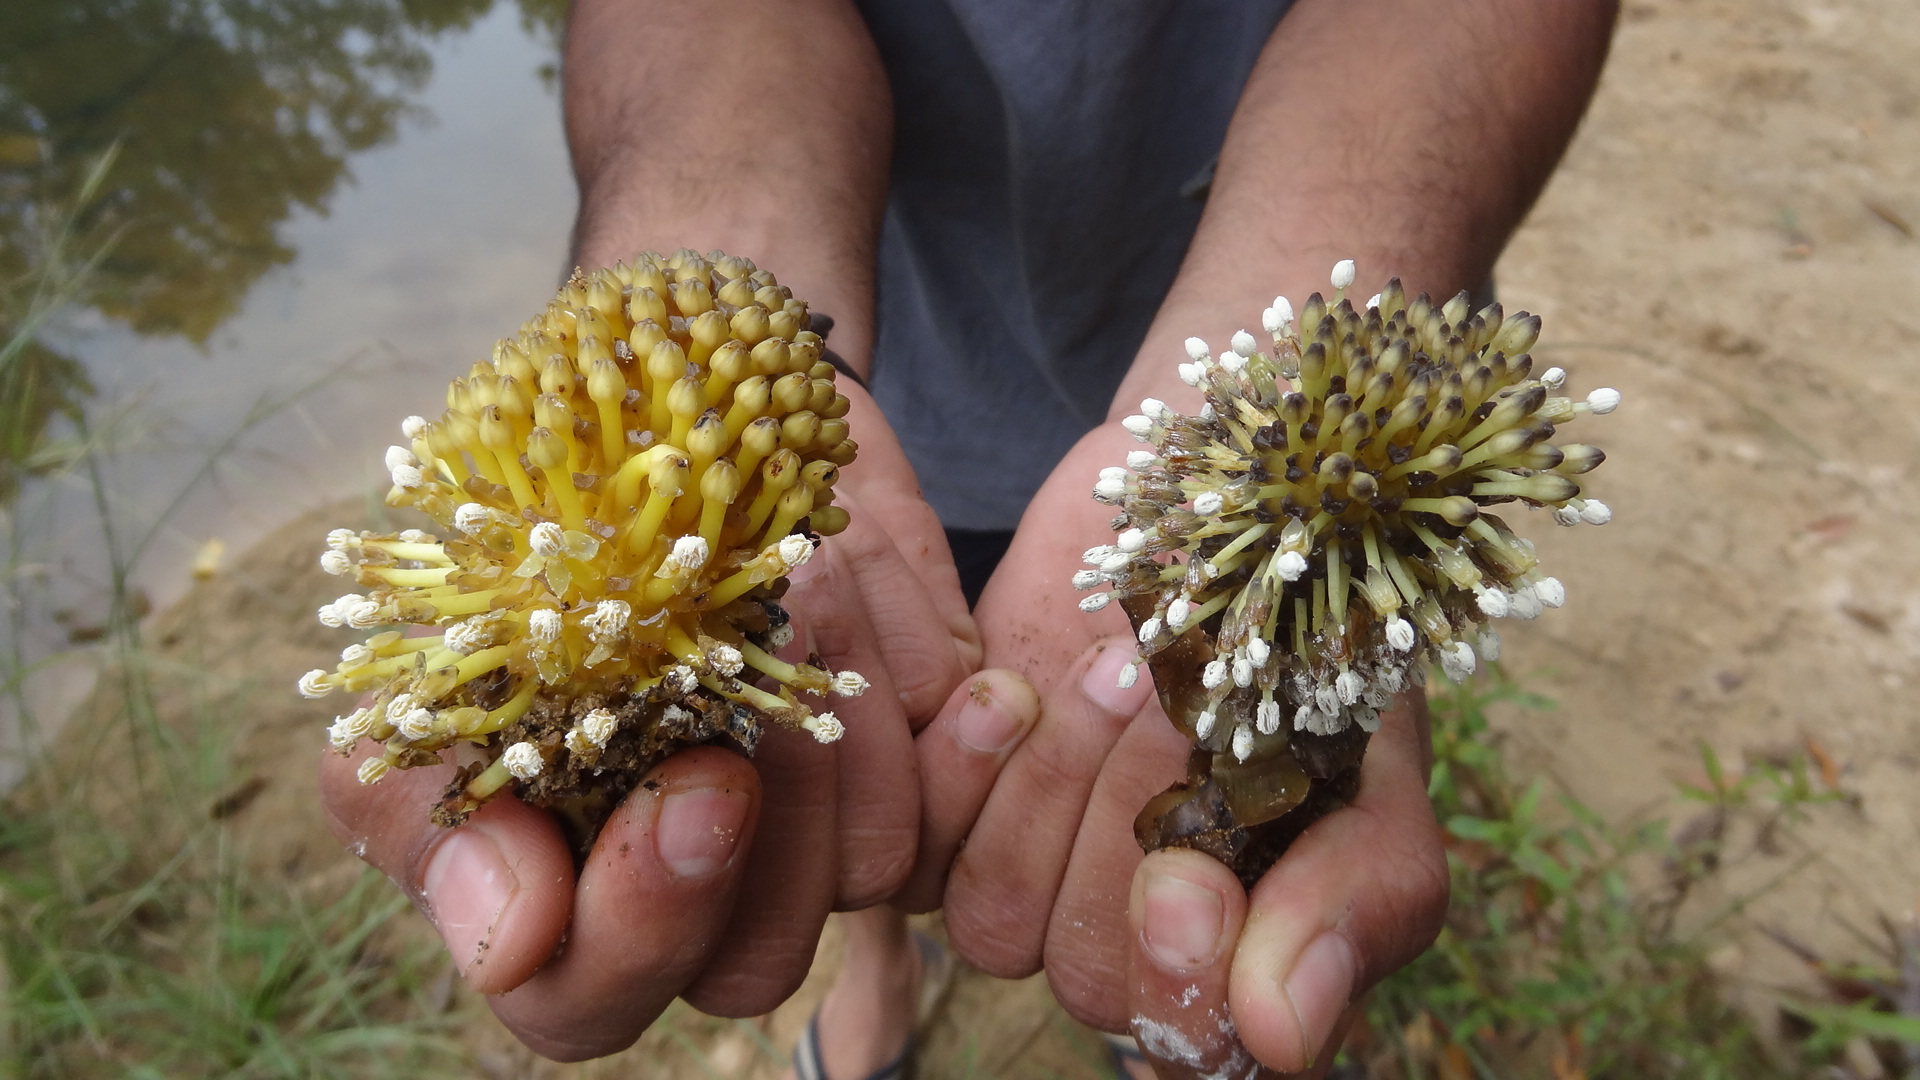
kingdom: Plantae
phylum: Tracheophyta
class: Magnoliopsida
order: Santalales
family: Balanophoraceae
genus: Balanophora
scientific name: Balanophora fungosa
